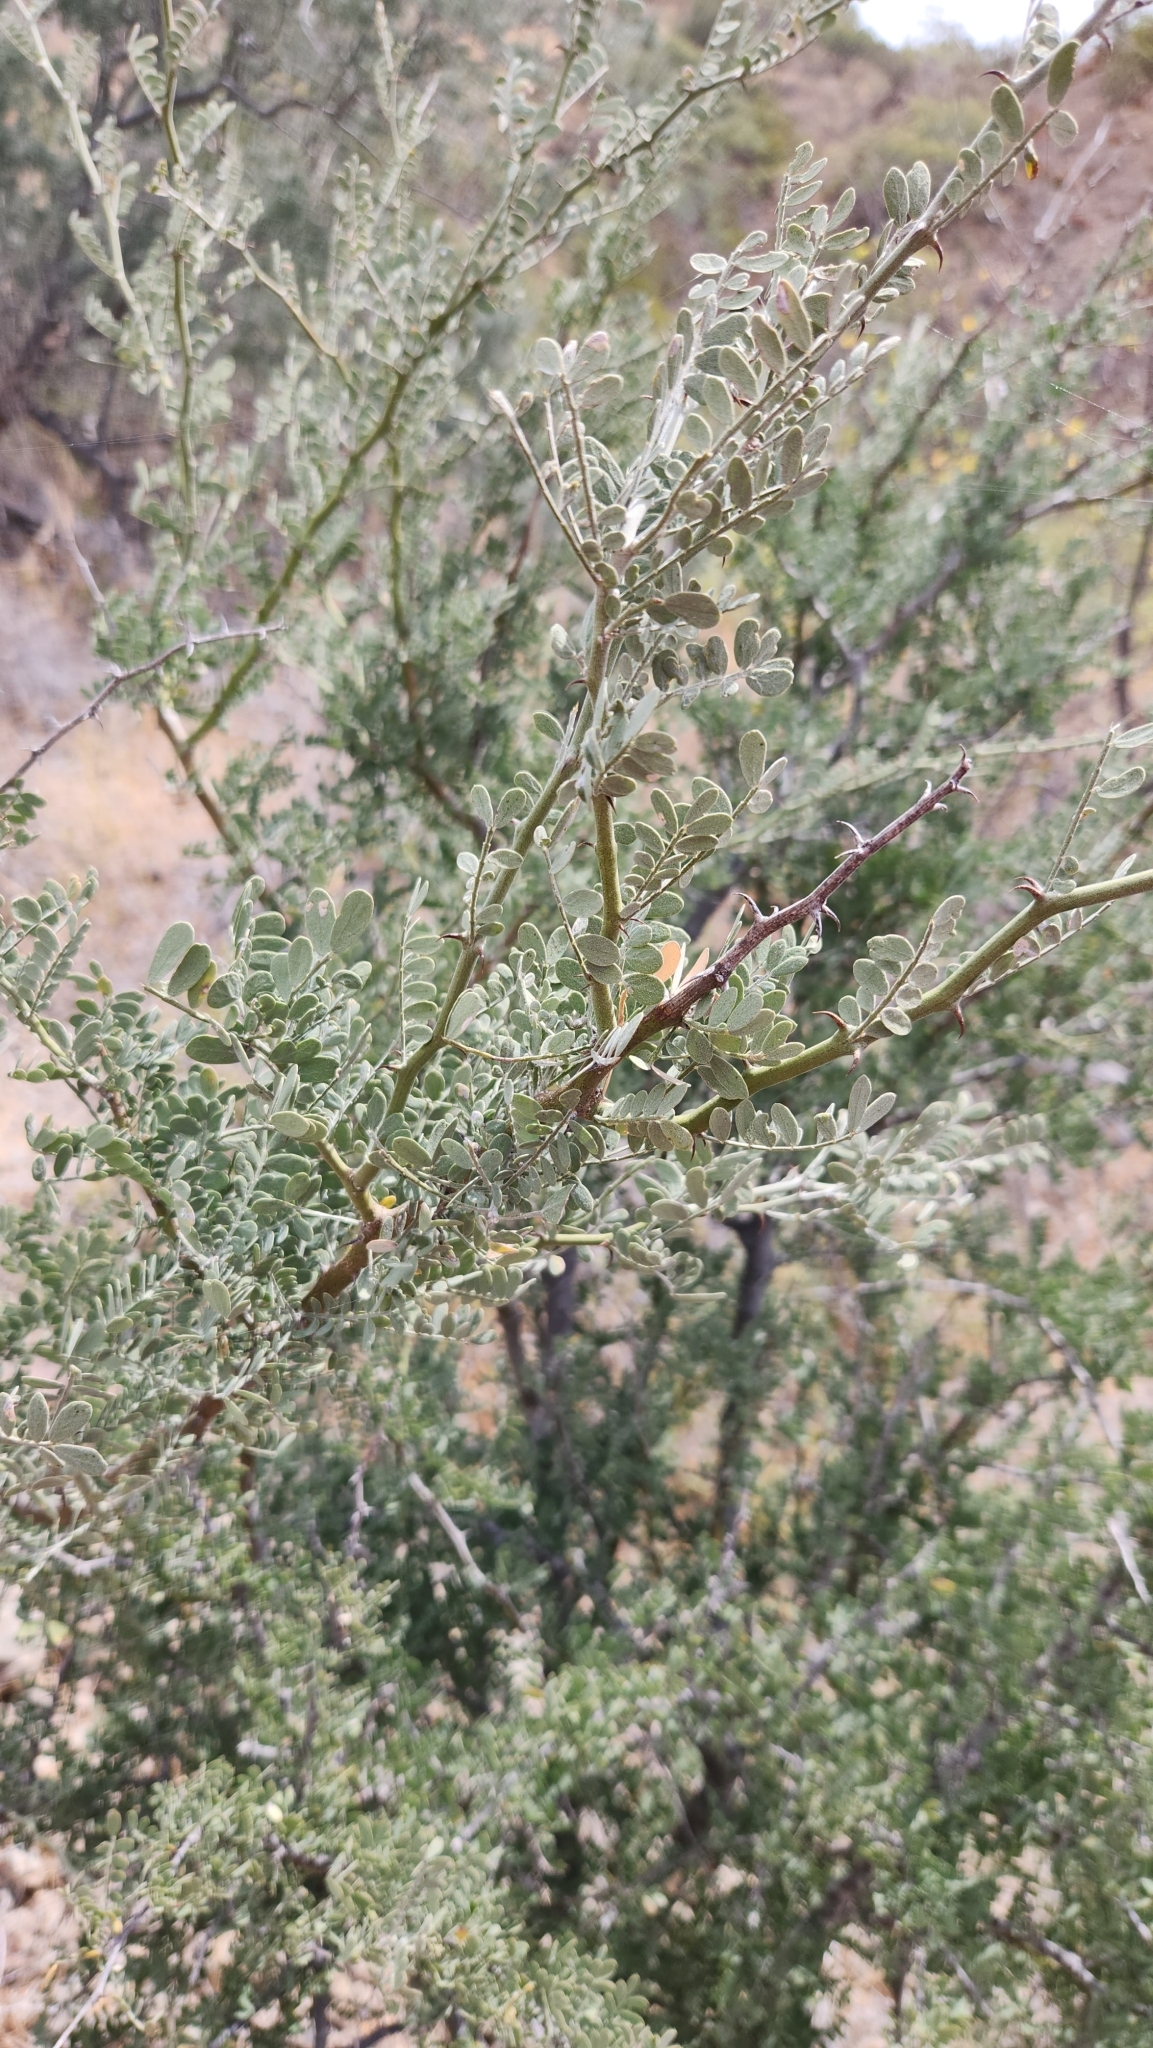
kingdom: Plantae
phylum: Tracheophyta
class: Magnoliopsida
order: Fabales
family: Fabaceae
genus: Olneya
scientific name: Olneya tesota
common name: Desert ironwood
